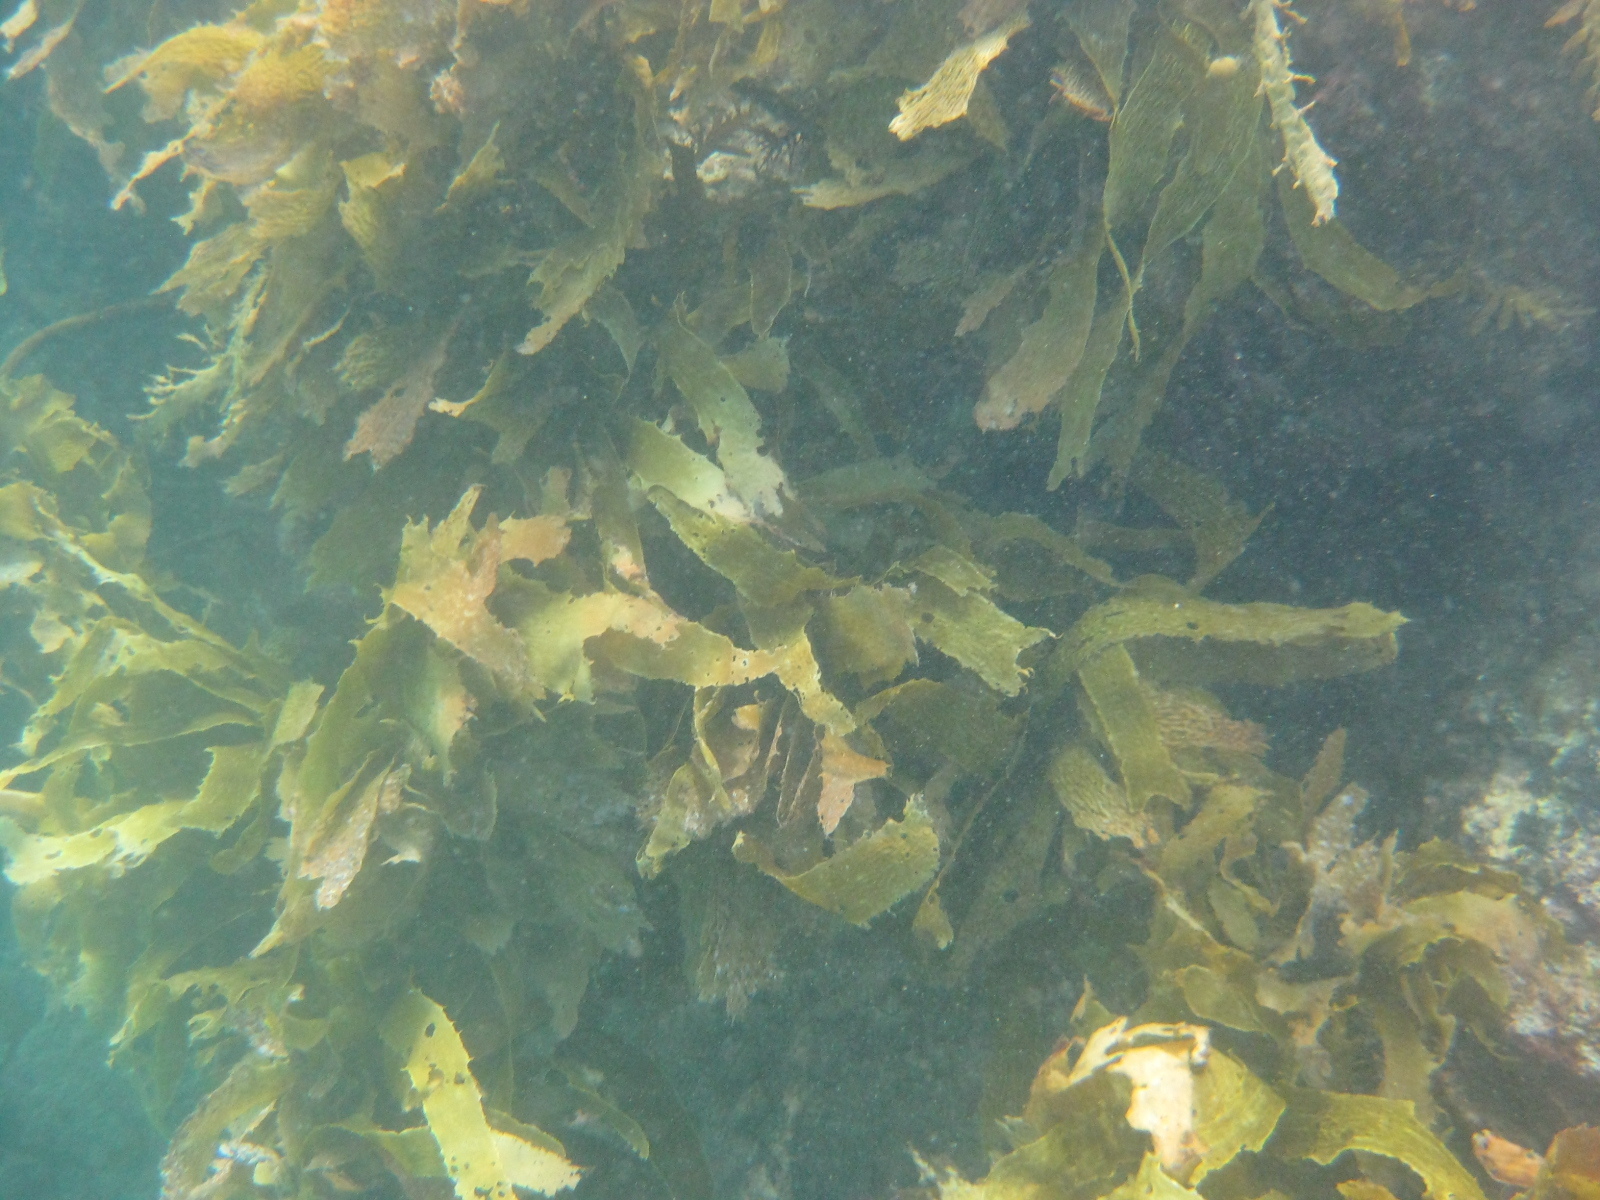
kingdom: Chromista
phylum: Ochrophyta
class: Phaeophyceae
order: Laminariales
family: Lessoniaceae
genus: Ecklonia
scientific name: Ecklonia radiata
